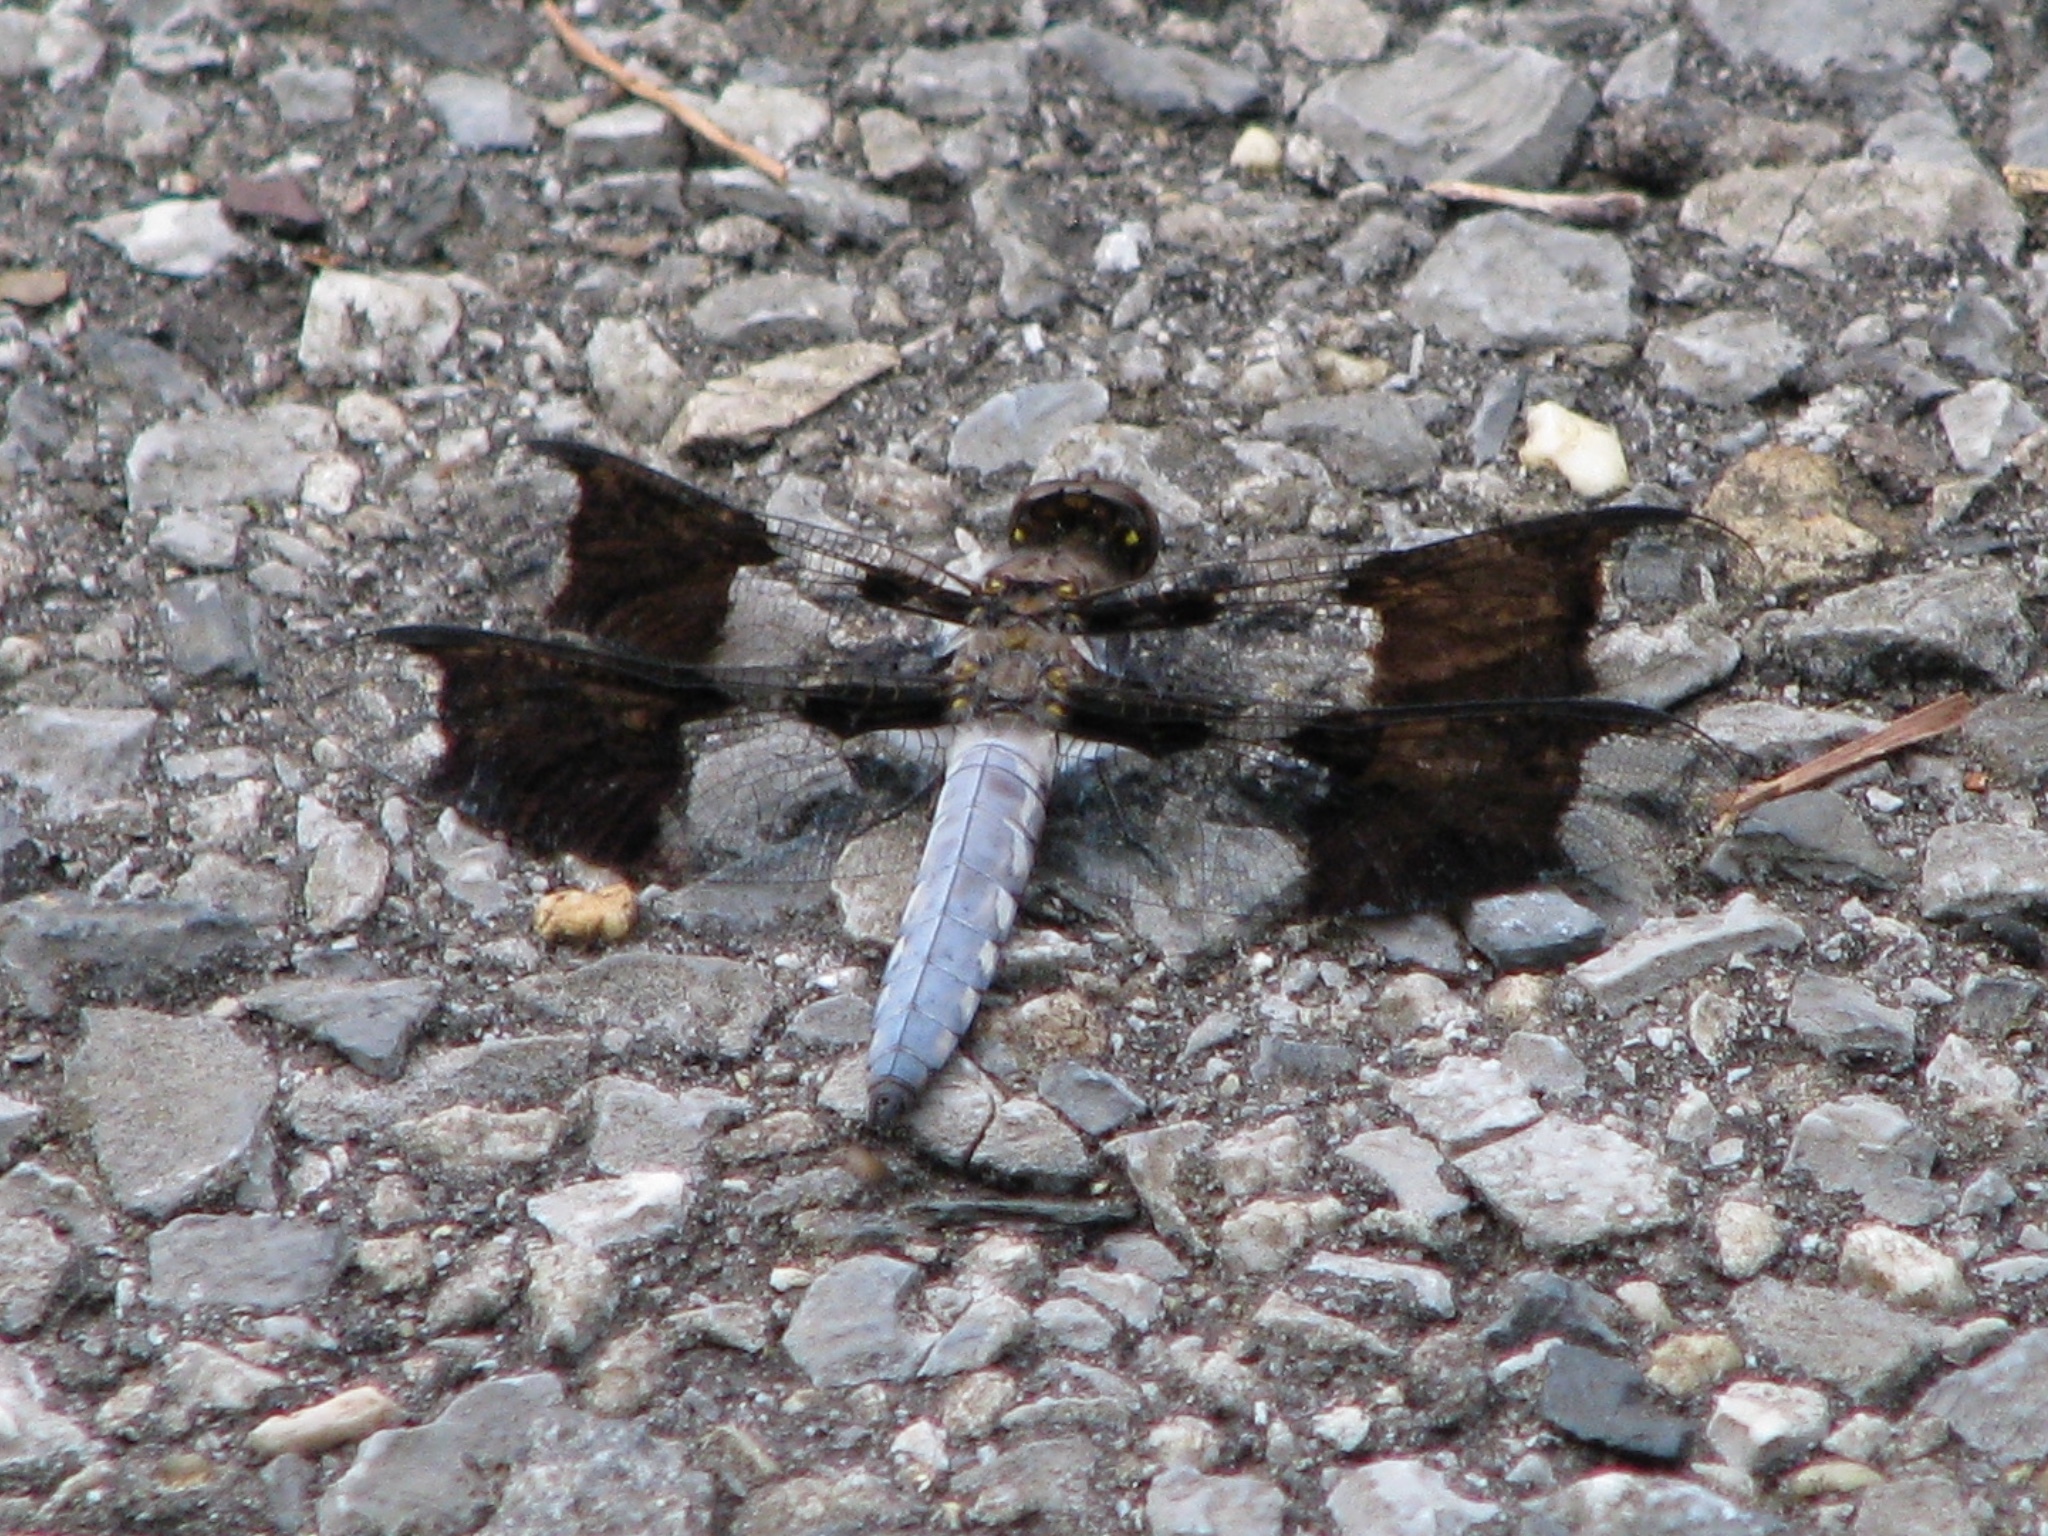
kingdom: Animalia
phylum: Arthropoda
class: Insecta
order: Odonata
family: Libellulidae
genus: Plathemis
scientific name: Plathemis lydia
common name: Common whitetail
